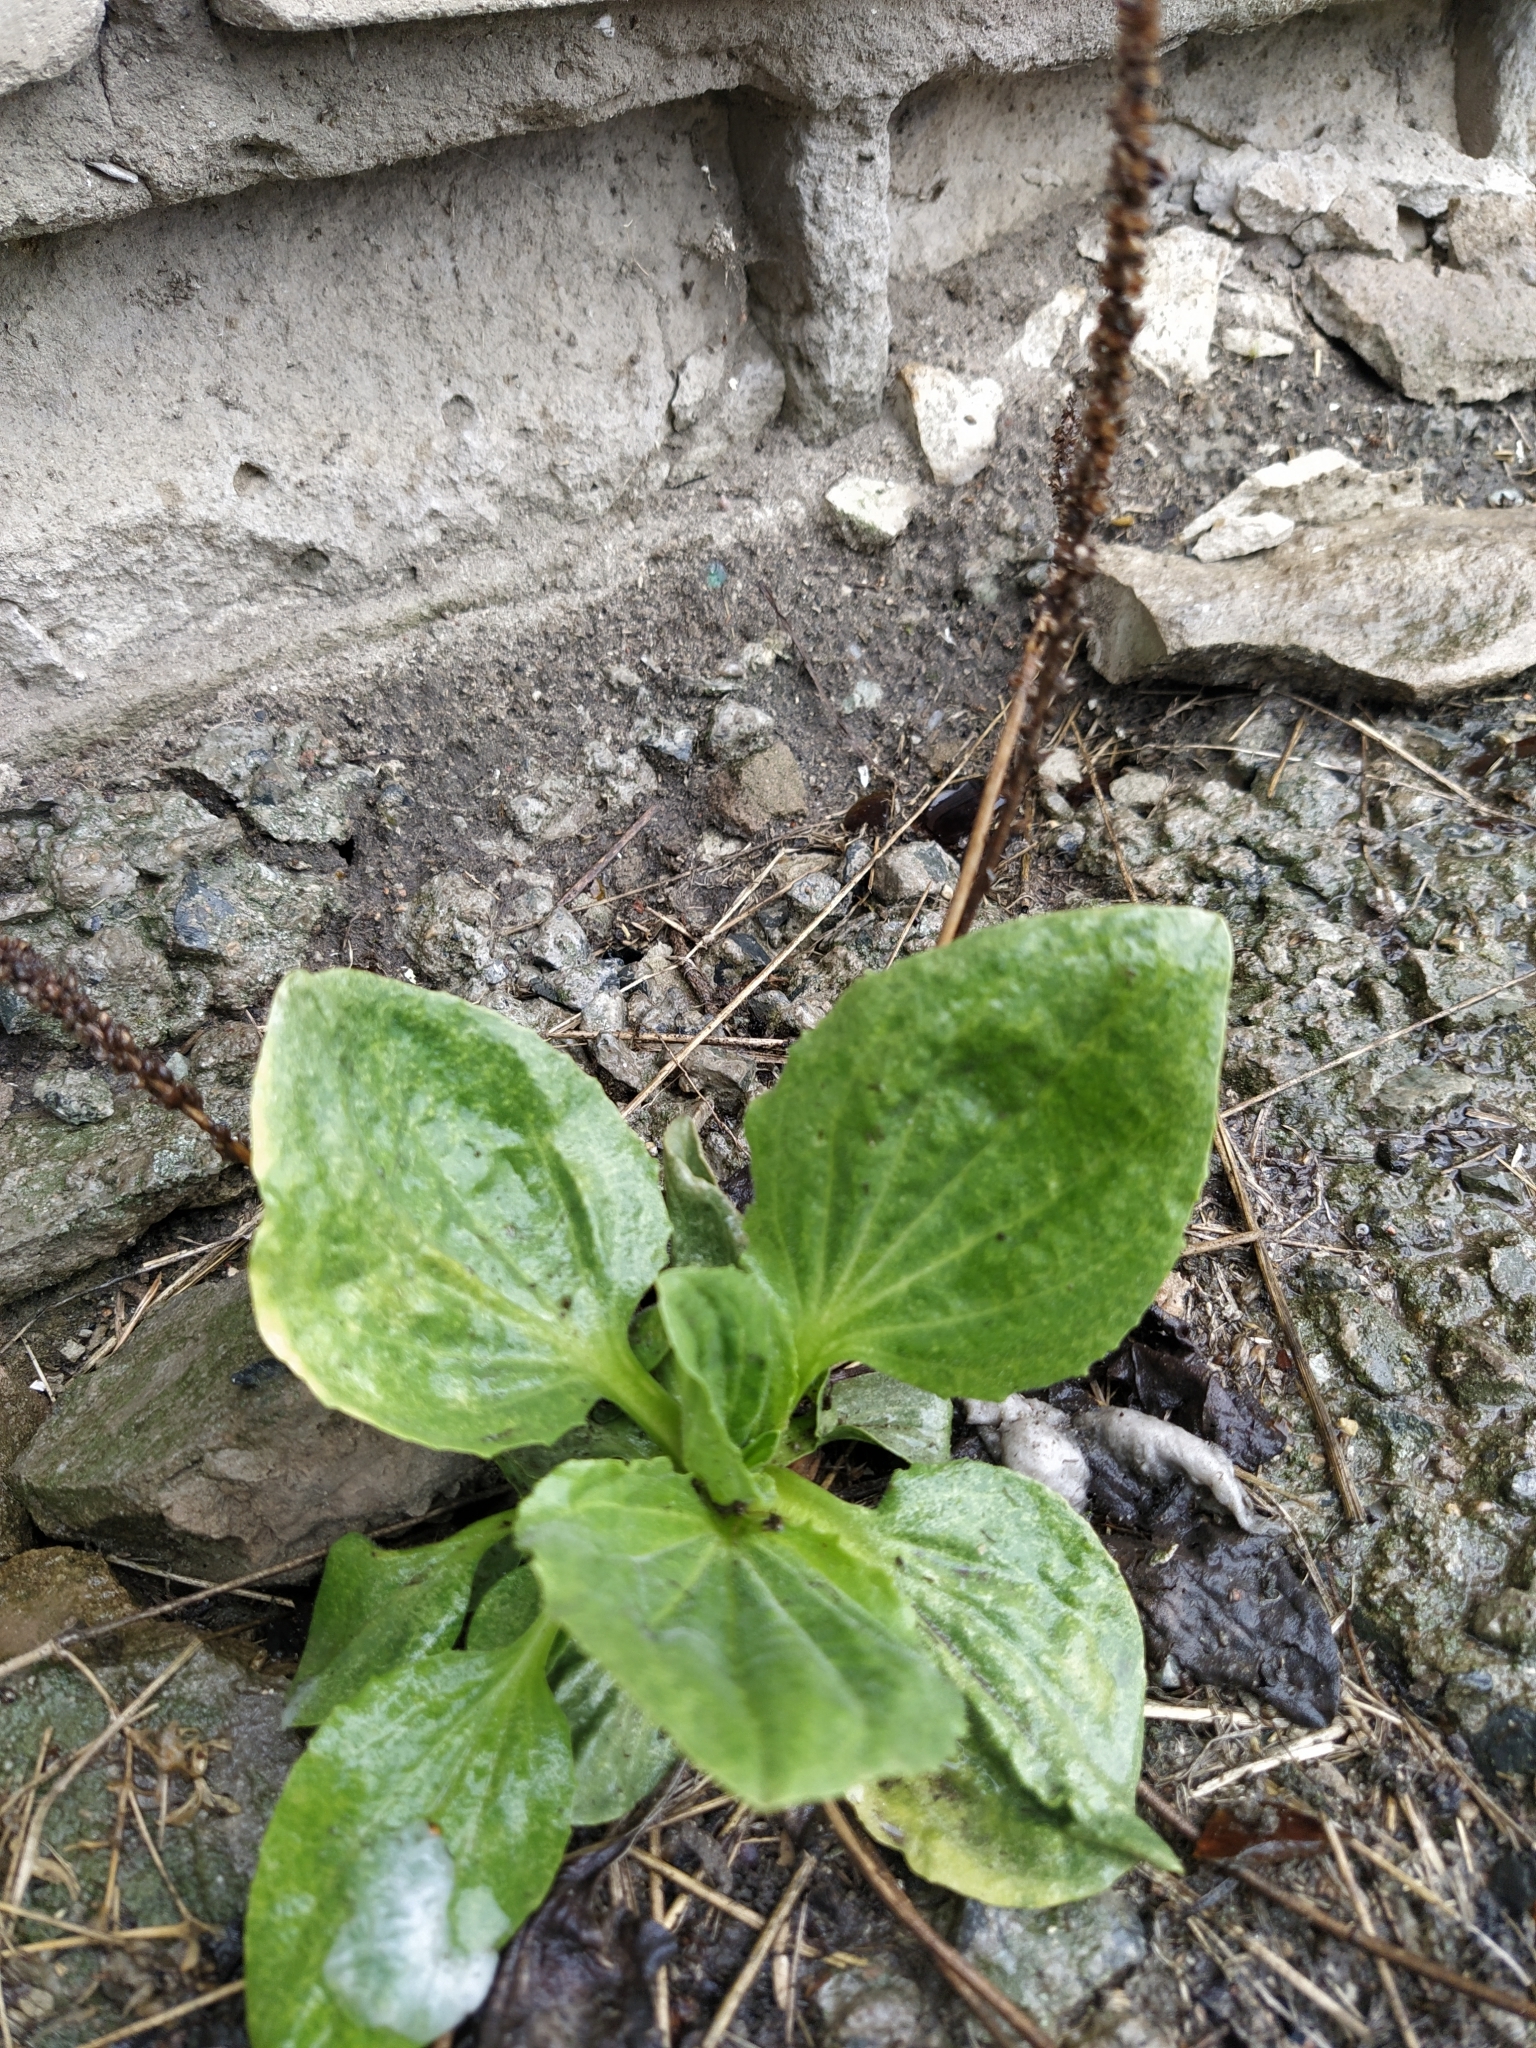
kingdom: Plantae
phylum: Tracheophyta
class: Magnoliopsida
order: Lamiales
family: Plantaginaceae
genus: Plantago
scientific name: Plantago major
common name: Common plantain
